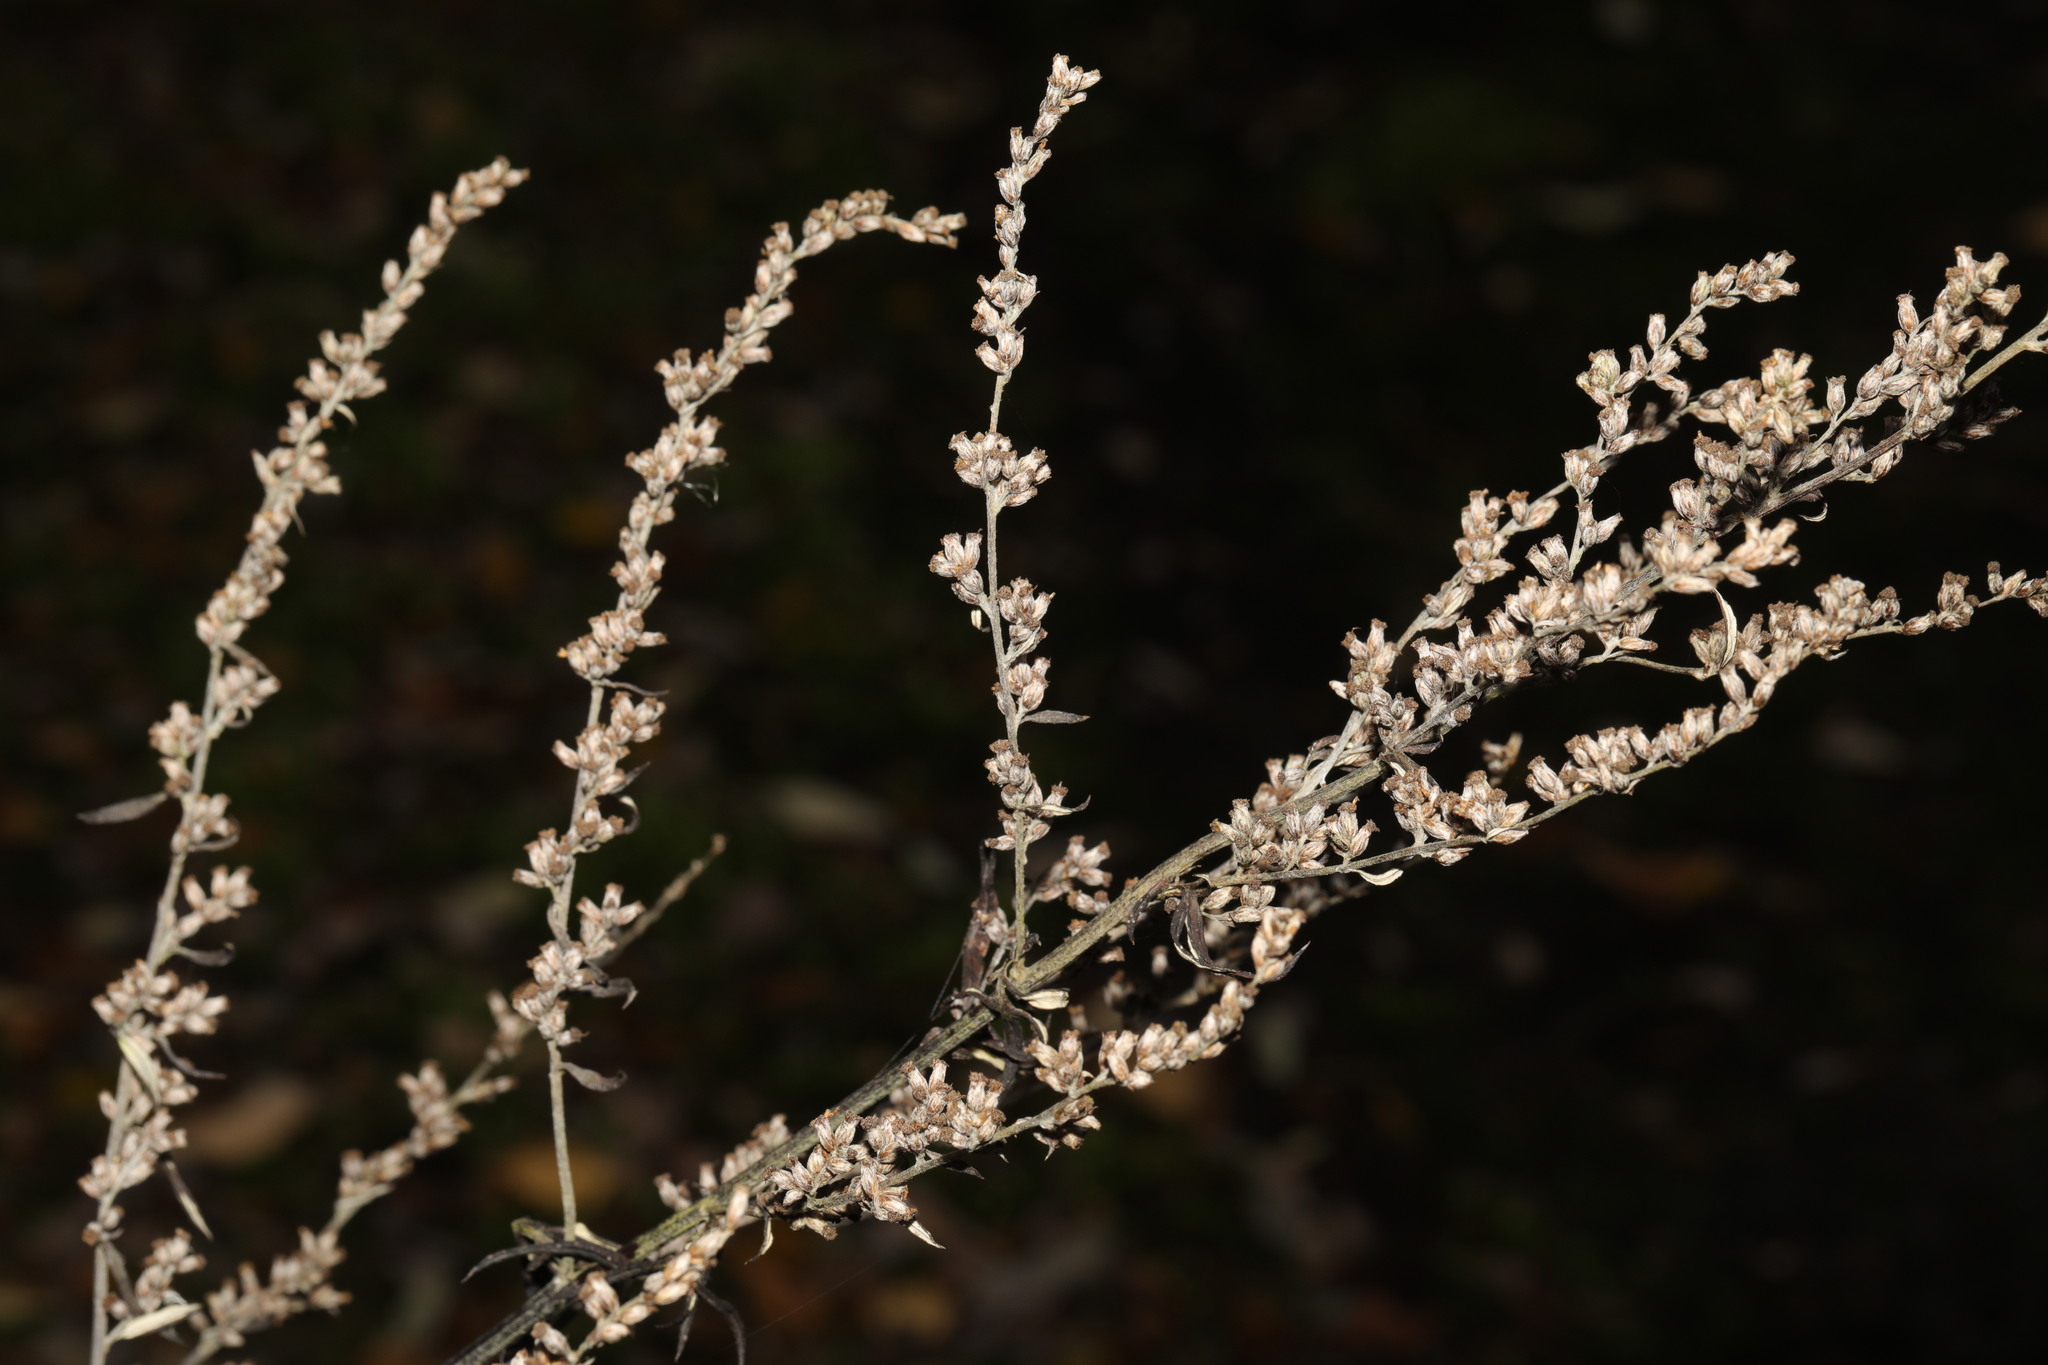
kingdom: Plantae
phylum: Tracheophyta
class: Magnoliopsida
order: Asterales
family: Asteraceae
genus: Artemisia
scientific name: Artemisia vulgaris
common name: Mugwort
